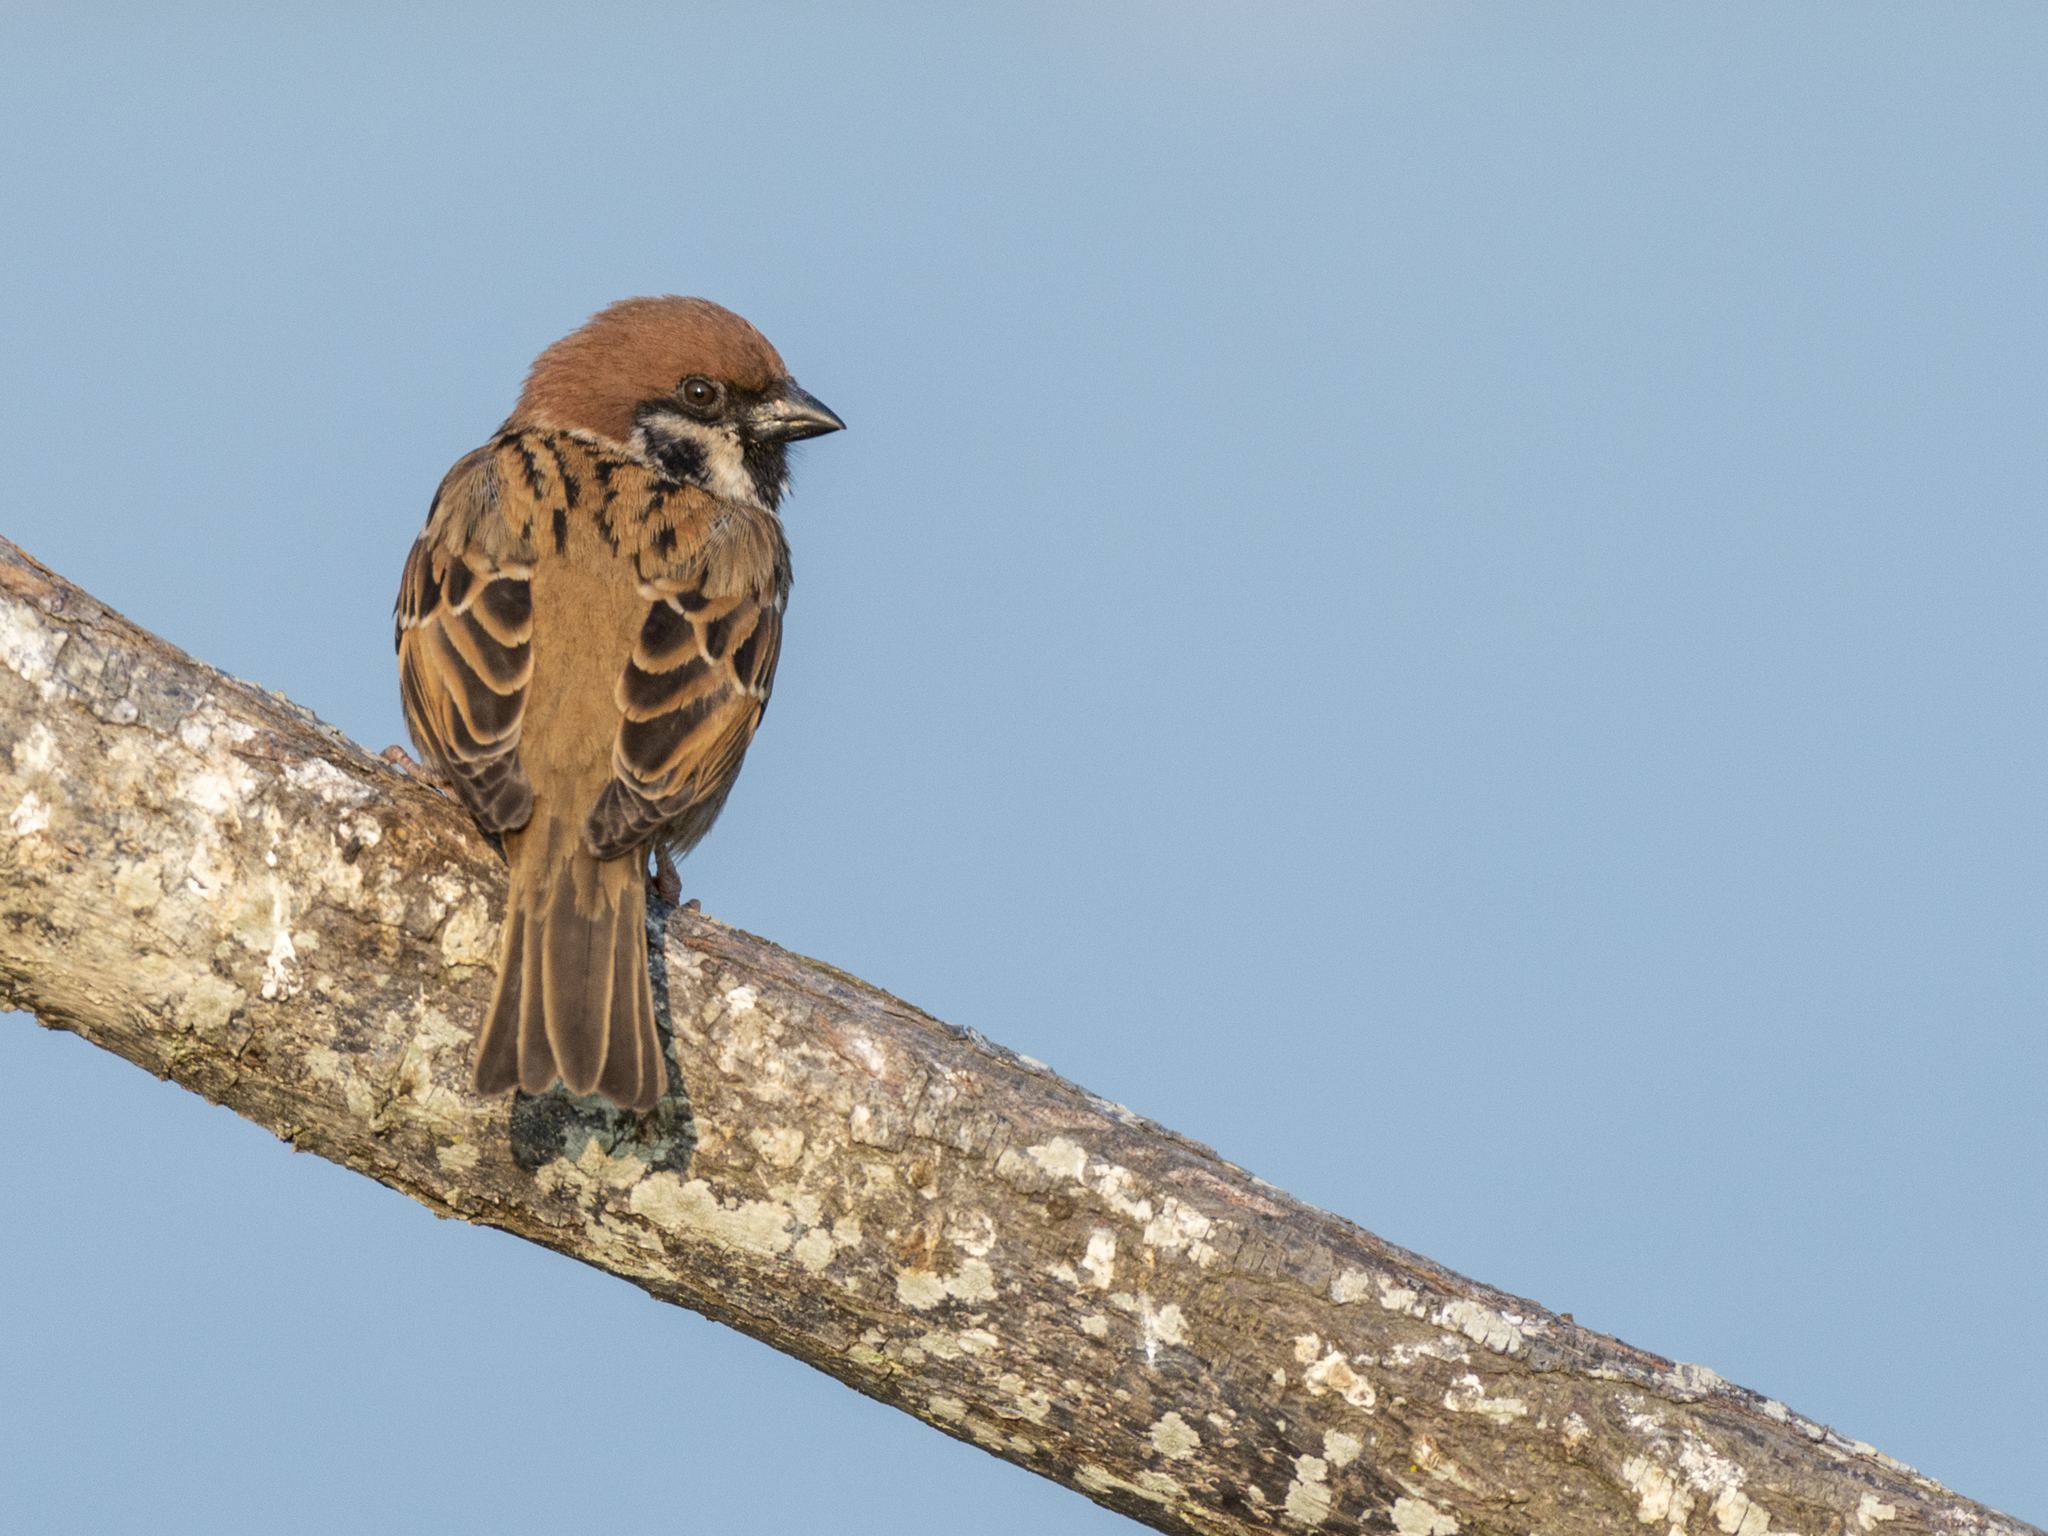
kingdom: Animalia
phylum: Chordata
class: Aves
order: Passeriformes
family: Passeridae
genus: Passer
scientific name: Passer montanus
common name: Eurasian tree sparrow
